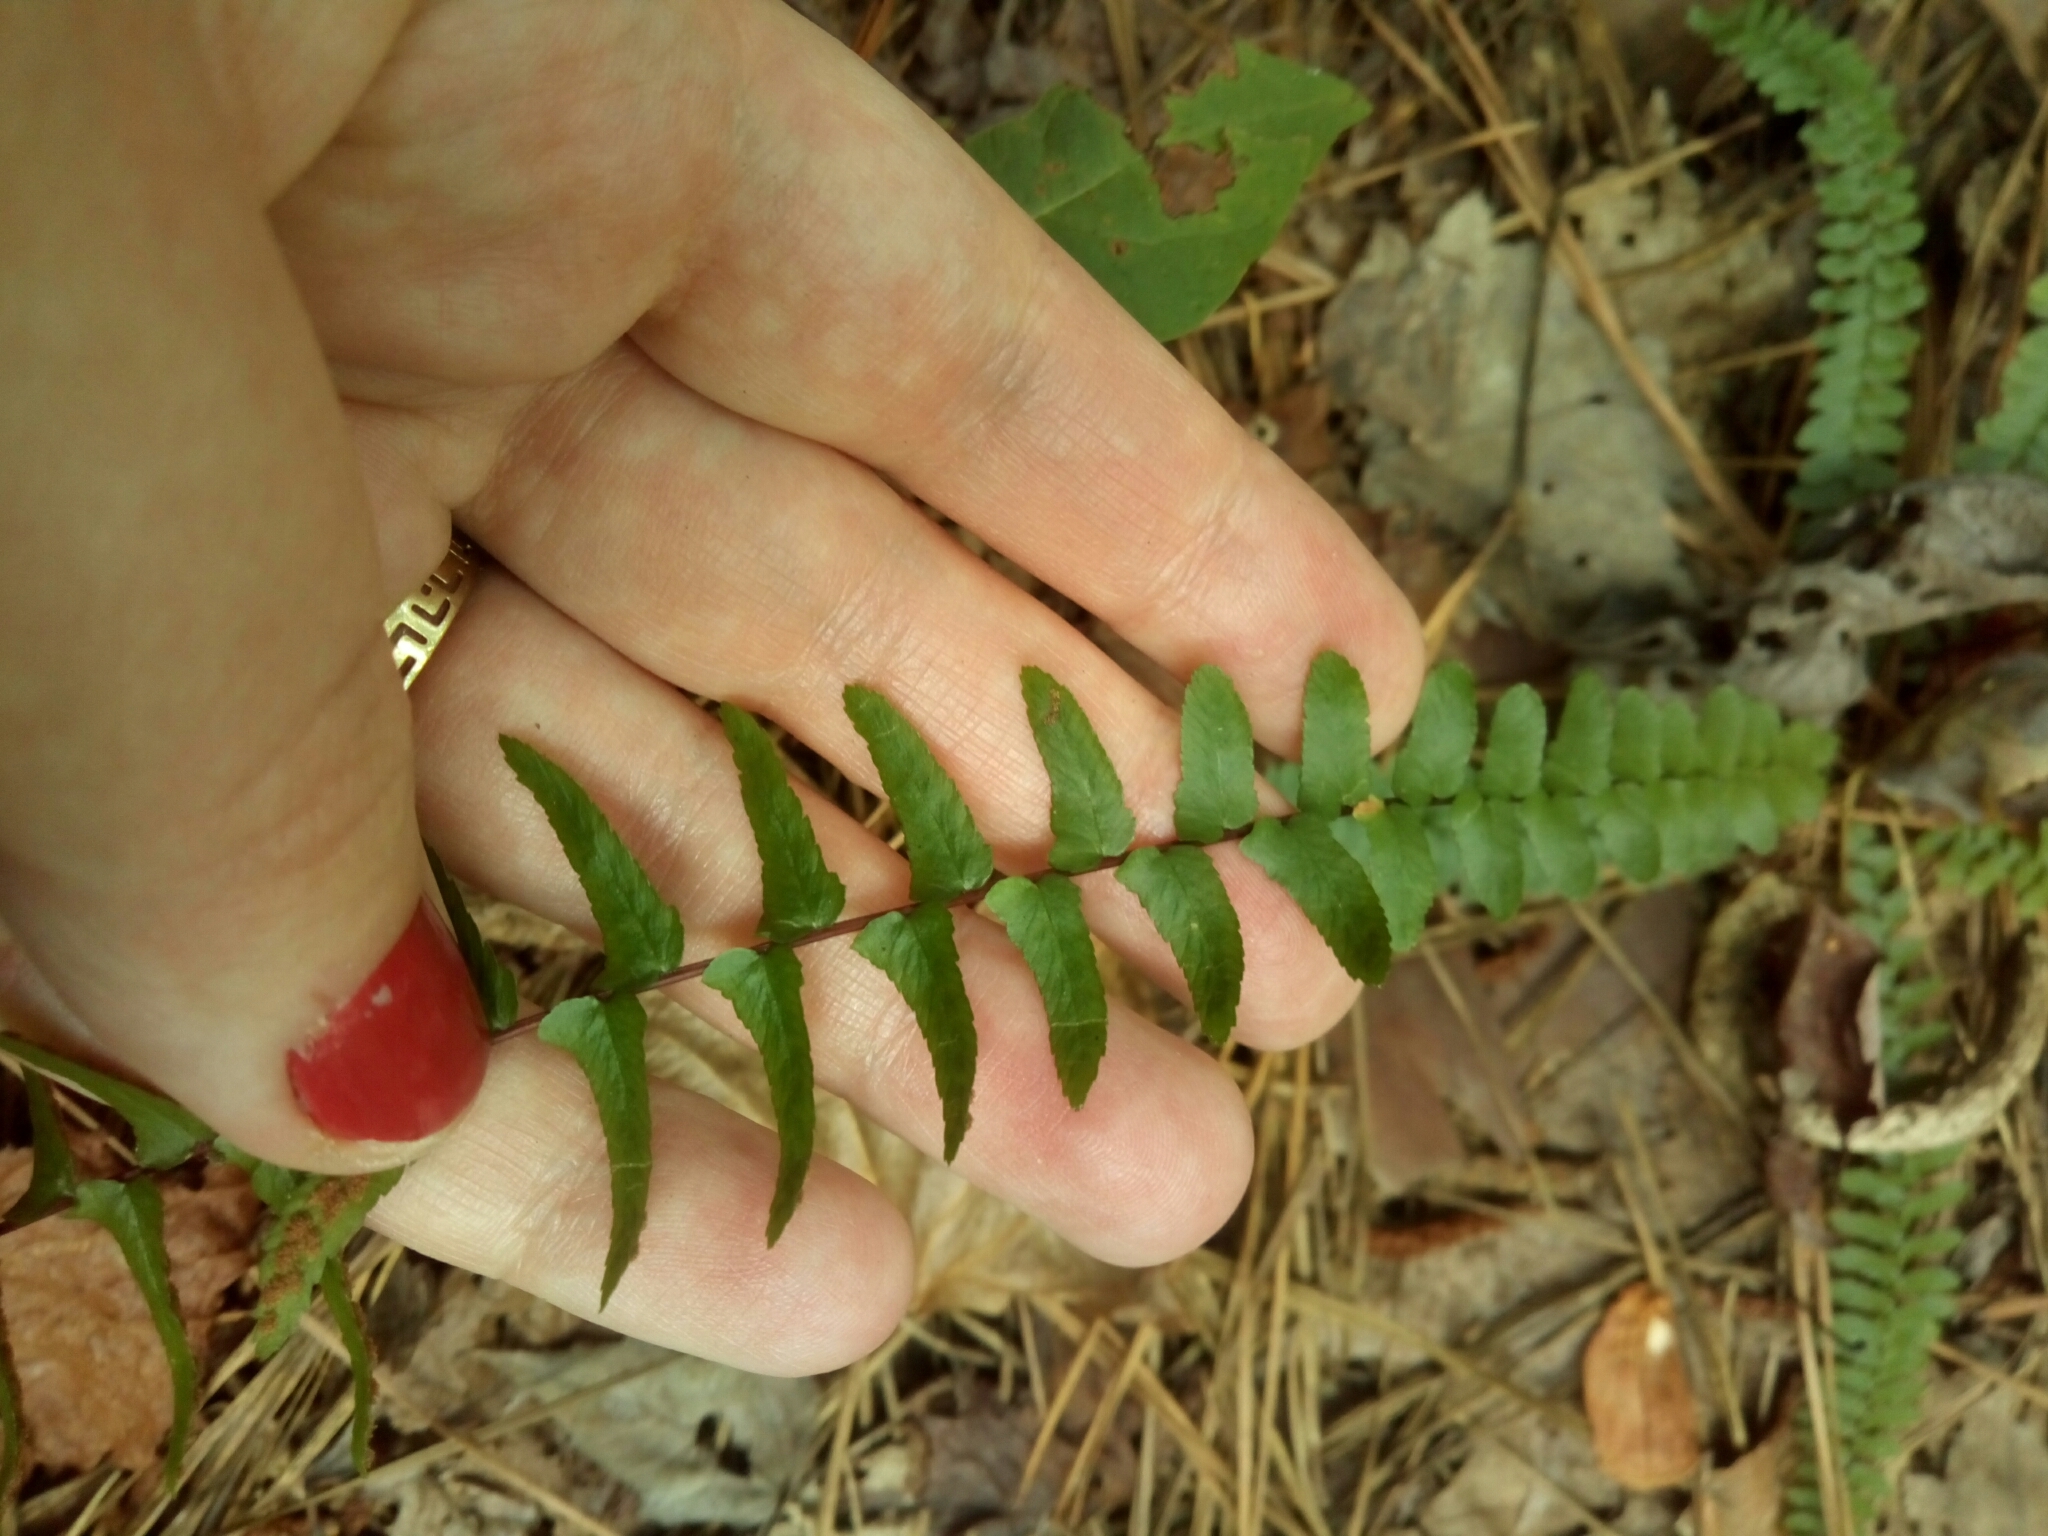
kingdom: Plantae
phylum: Tracheophyta
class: Polypodiopsida
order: Polypodiales
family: Aspleniaceae
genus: Asplenium
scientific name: Asplenium platyneuron
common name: Ebony spleenwort
